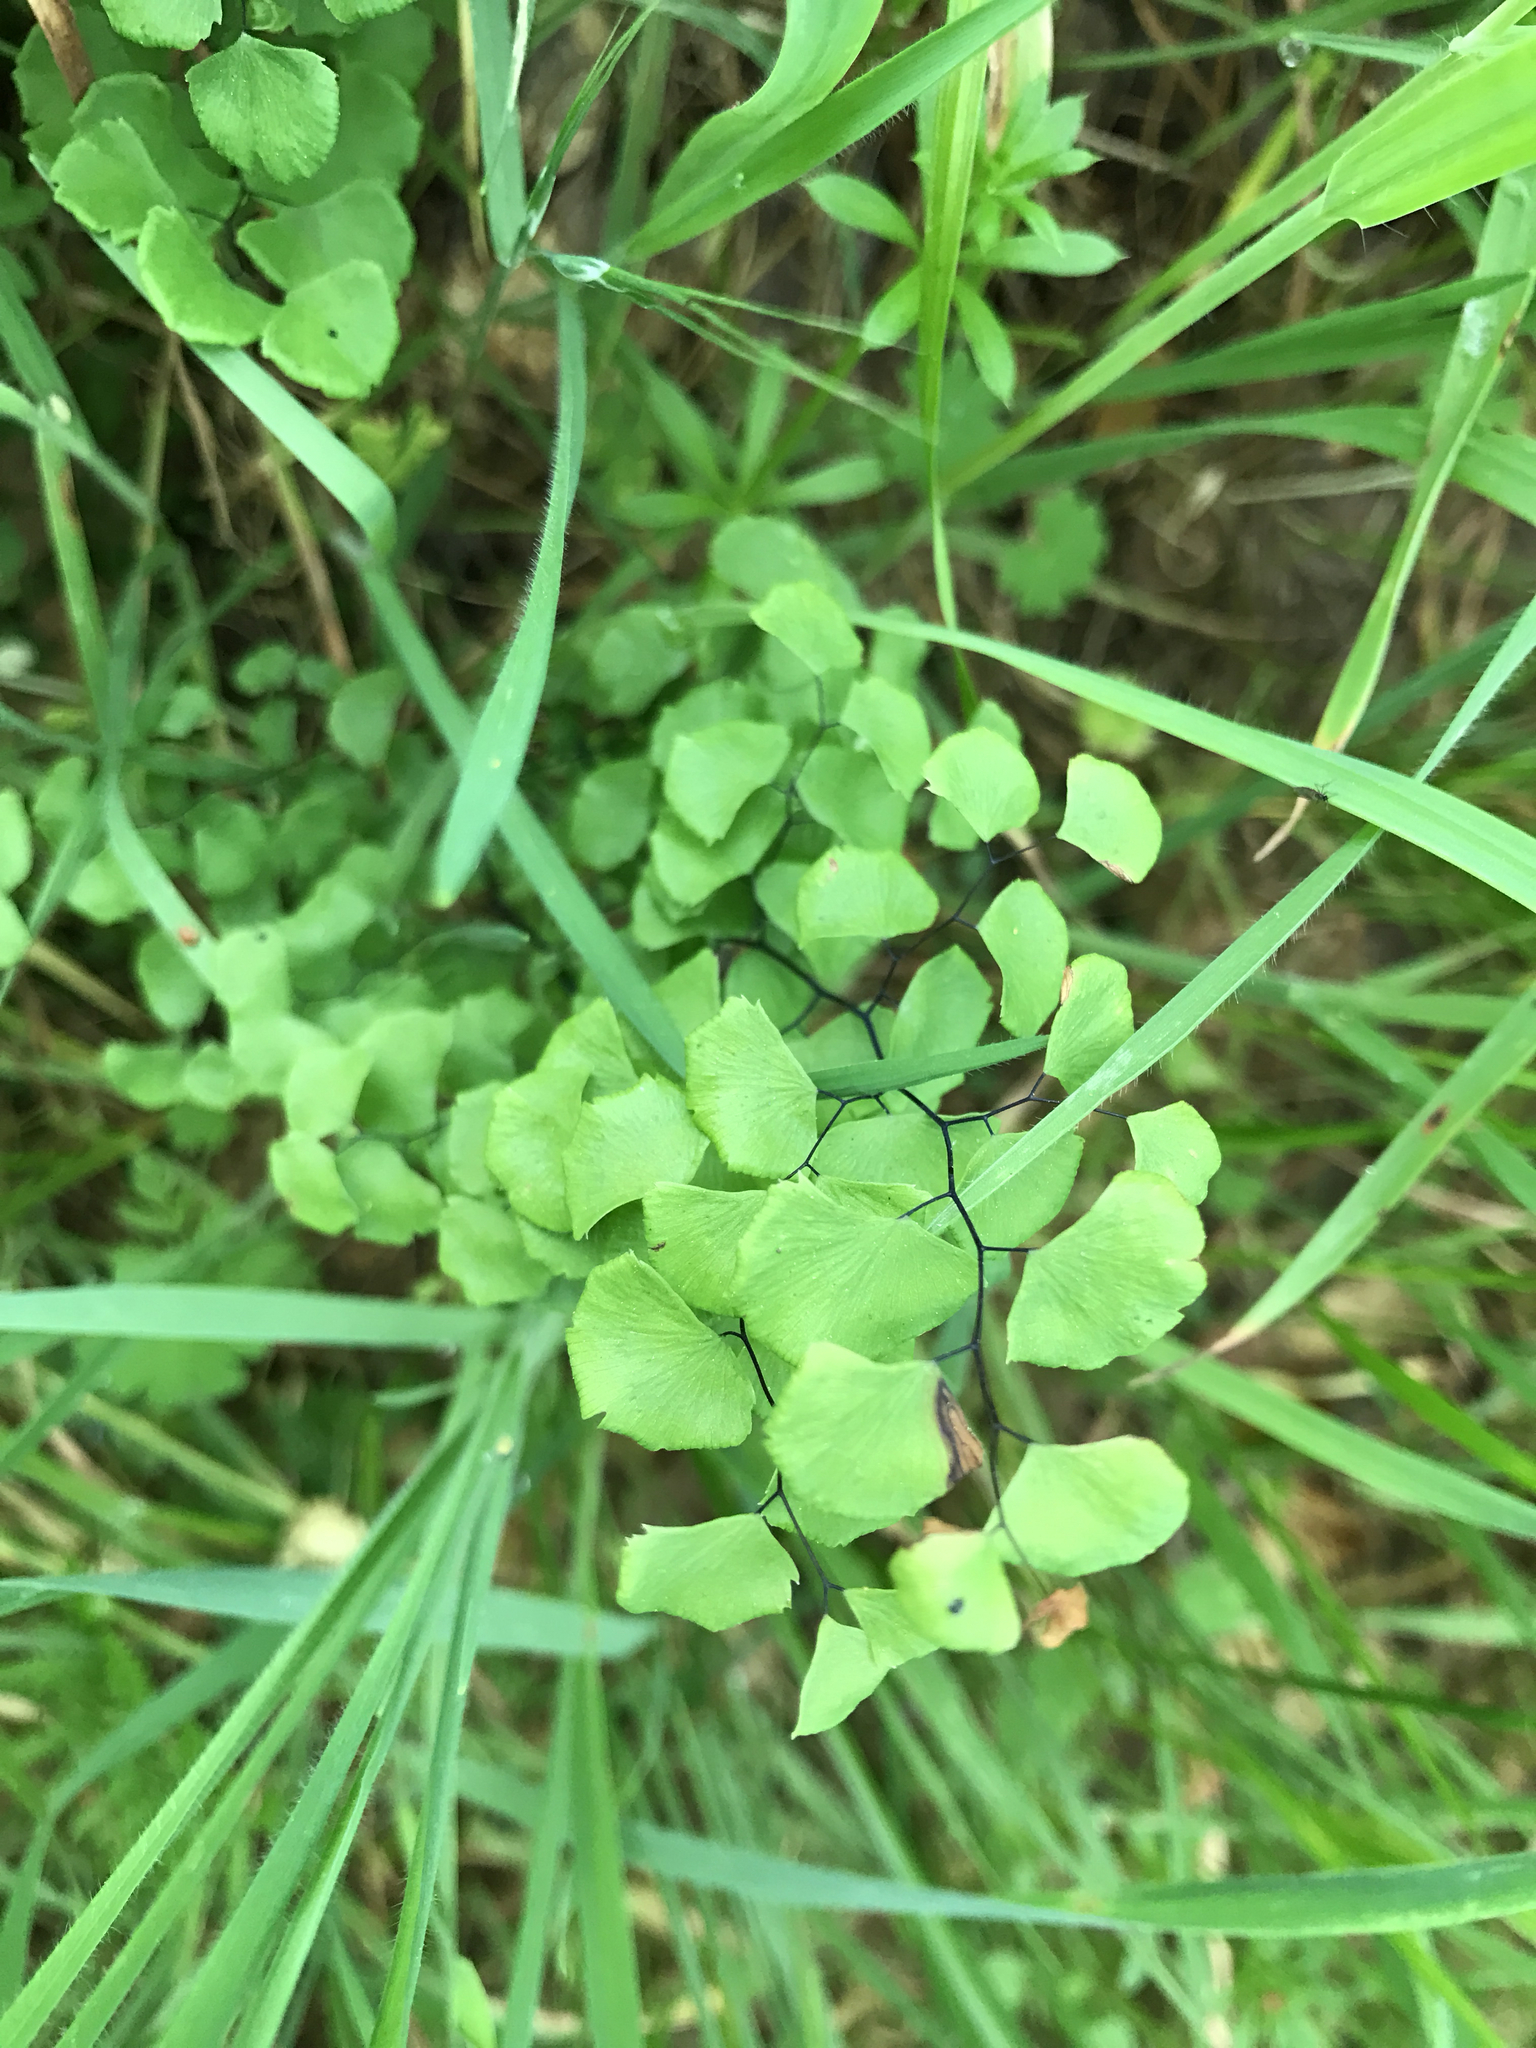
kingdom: Plantae
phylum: Tracheophyta
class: Polypodiopsida
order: Polypodiales
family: Pteridaceae
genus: Adiantum
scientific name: Adiantum jordanii
